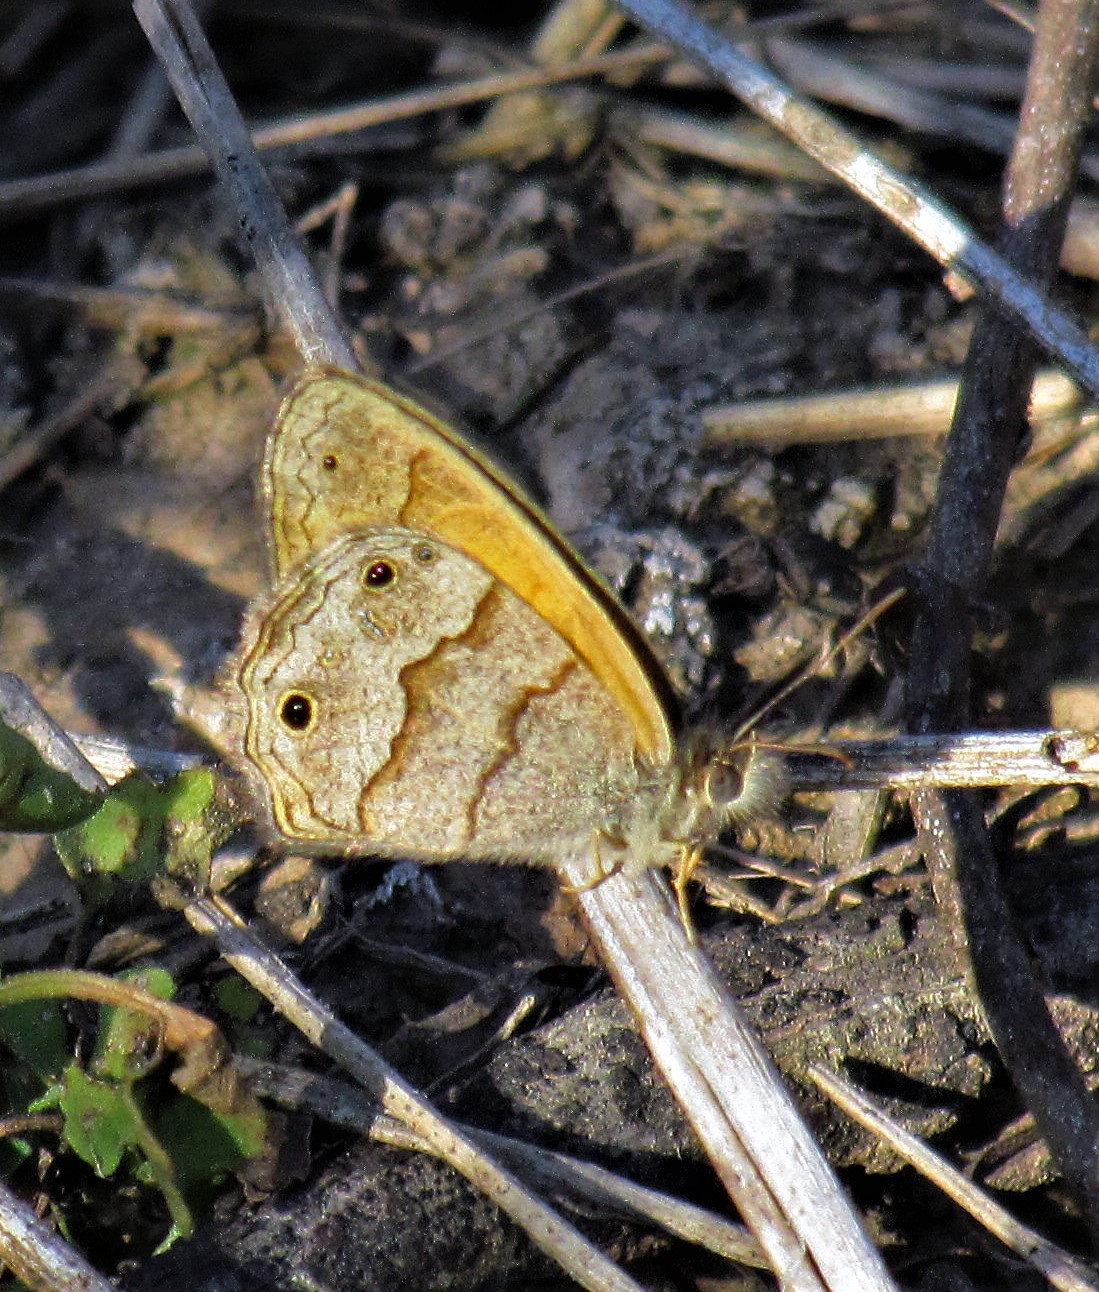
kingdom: Animalia
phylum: Arthropoda
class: Insecta
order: Lepidoptera
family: Nymphalidae
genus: Pharneuptychia
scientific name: Pharneuptychia phares
